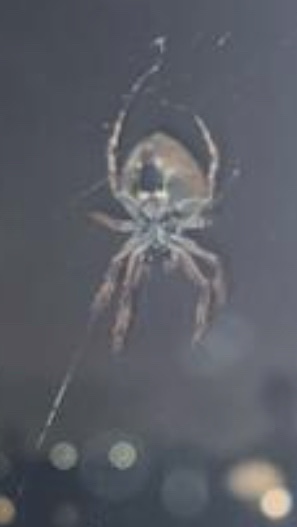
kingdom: Animalia
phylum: Arthropoda
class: Arachnida
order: Araneae
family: Araneidae
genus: Eriophora
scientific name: Eriophora pustulosa
